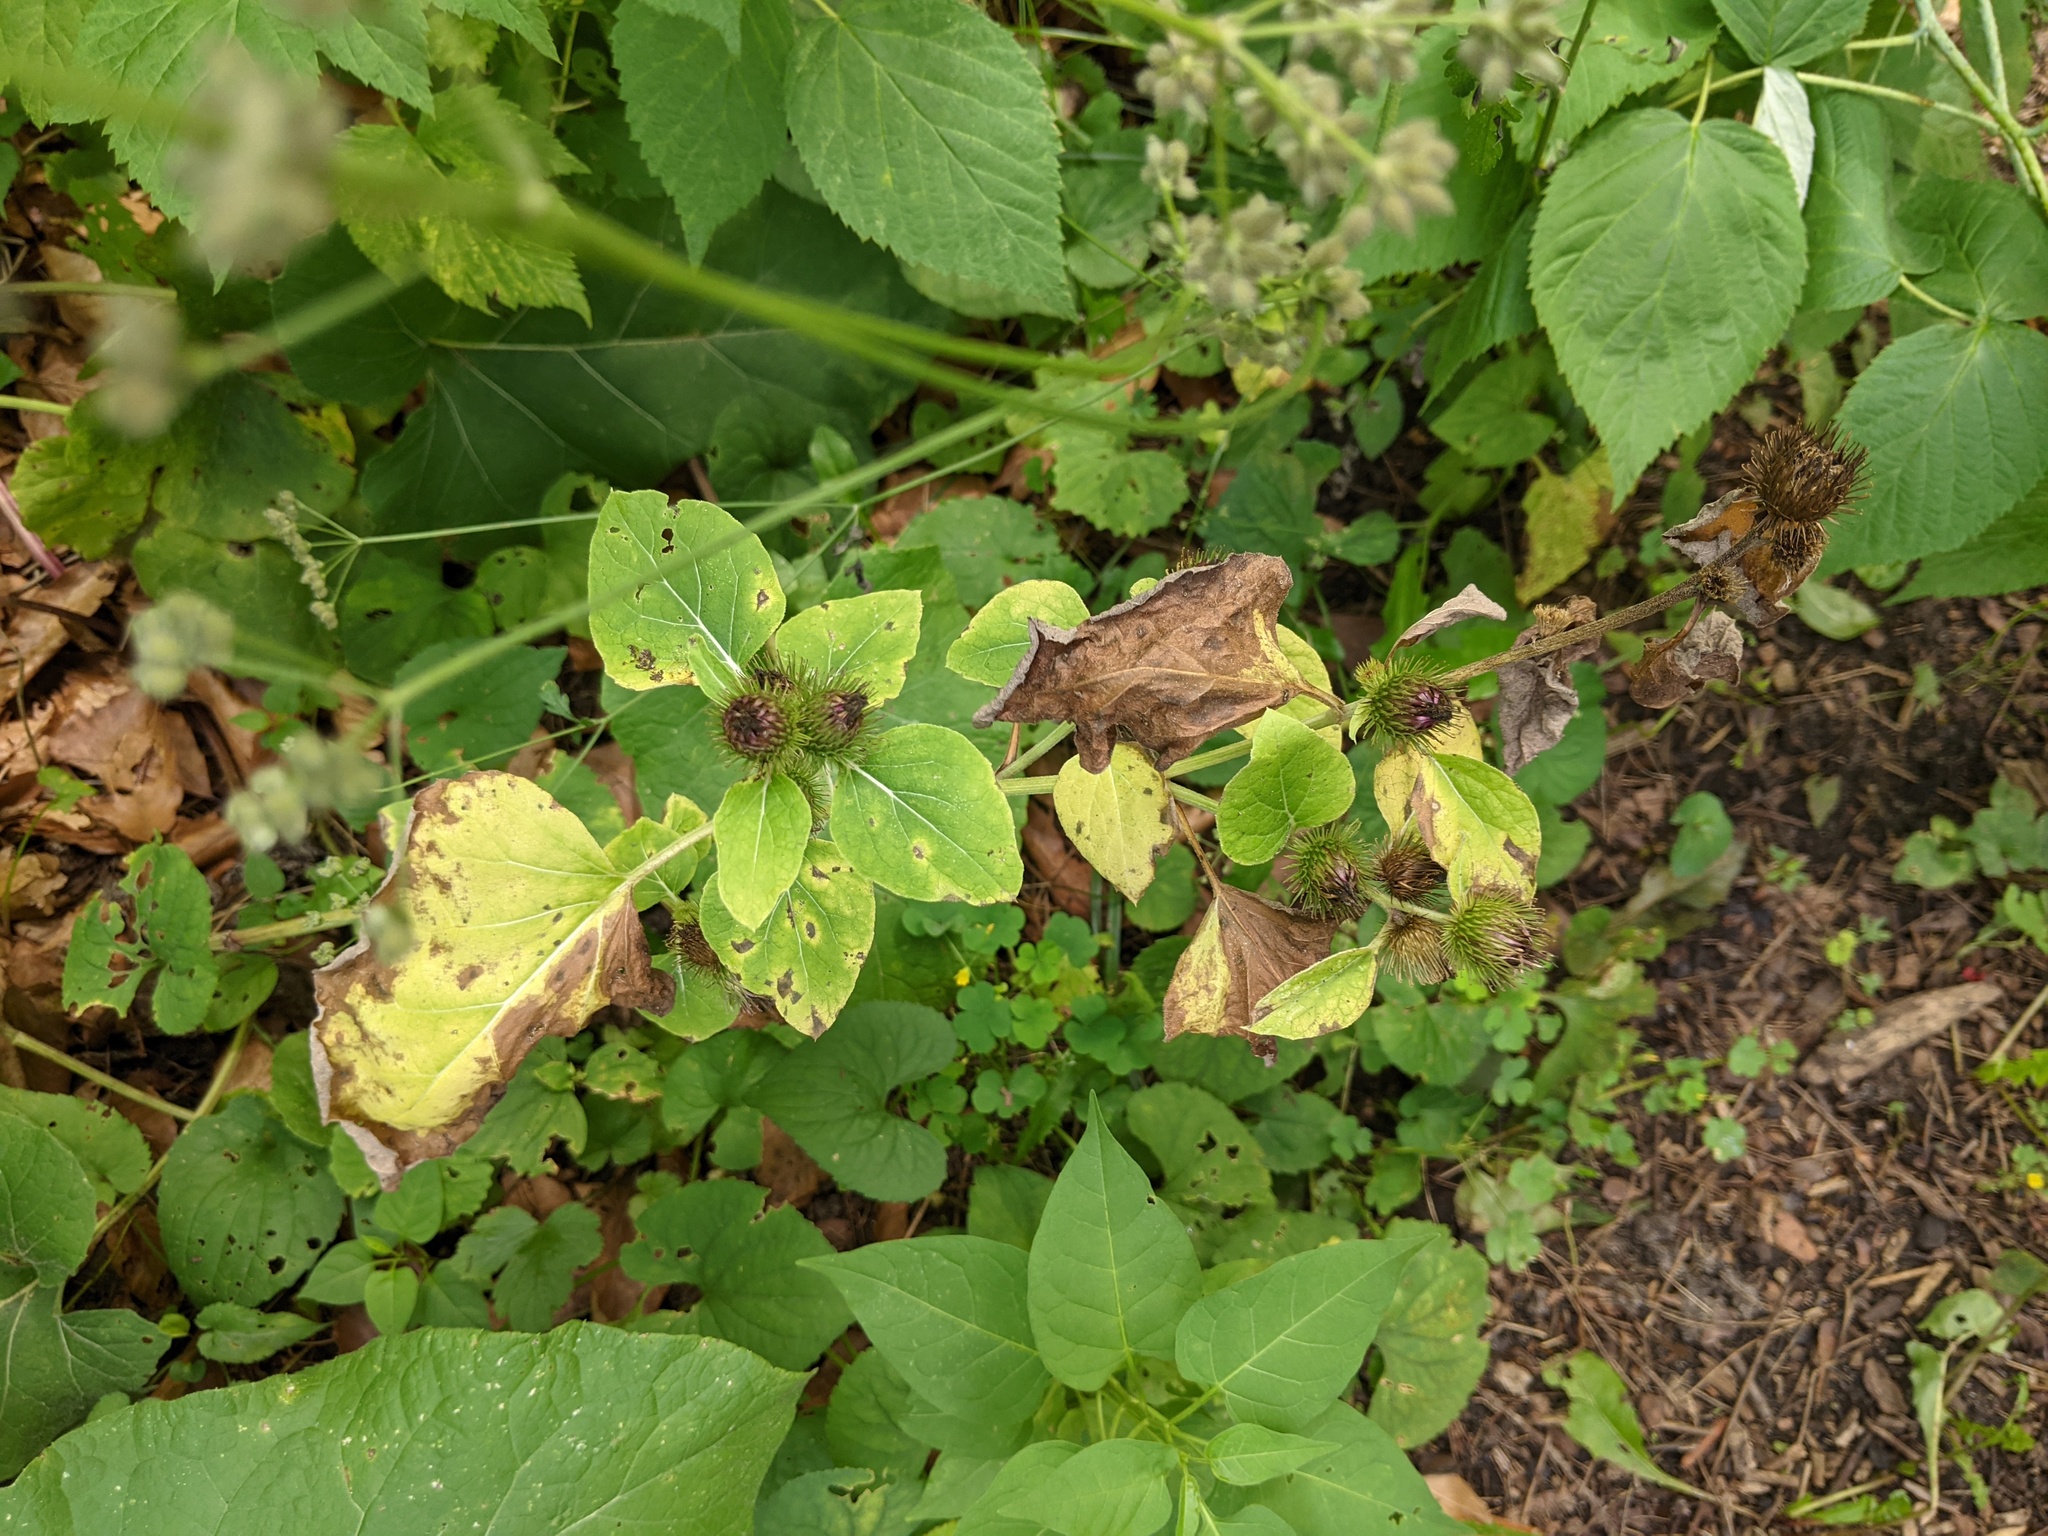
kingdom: Plantae
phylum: Tracheophyta
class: Magnoliopsida
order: Asterales
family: Asteraceae
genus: Arctium
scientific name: Arctium minus
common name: Lesser burdock
